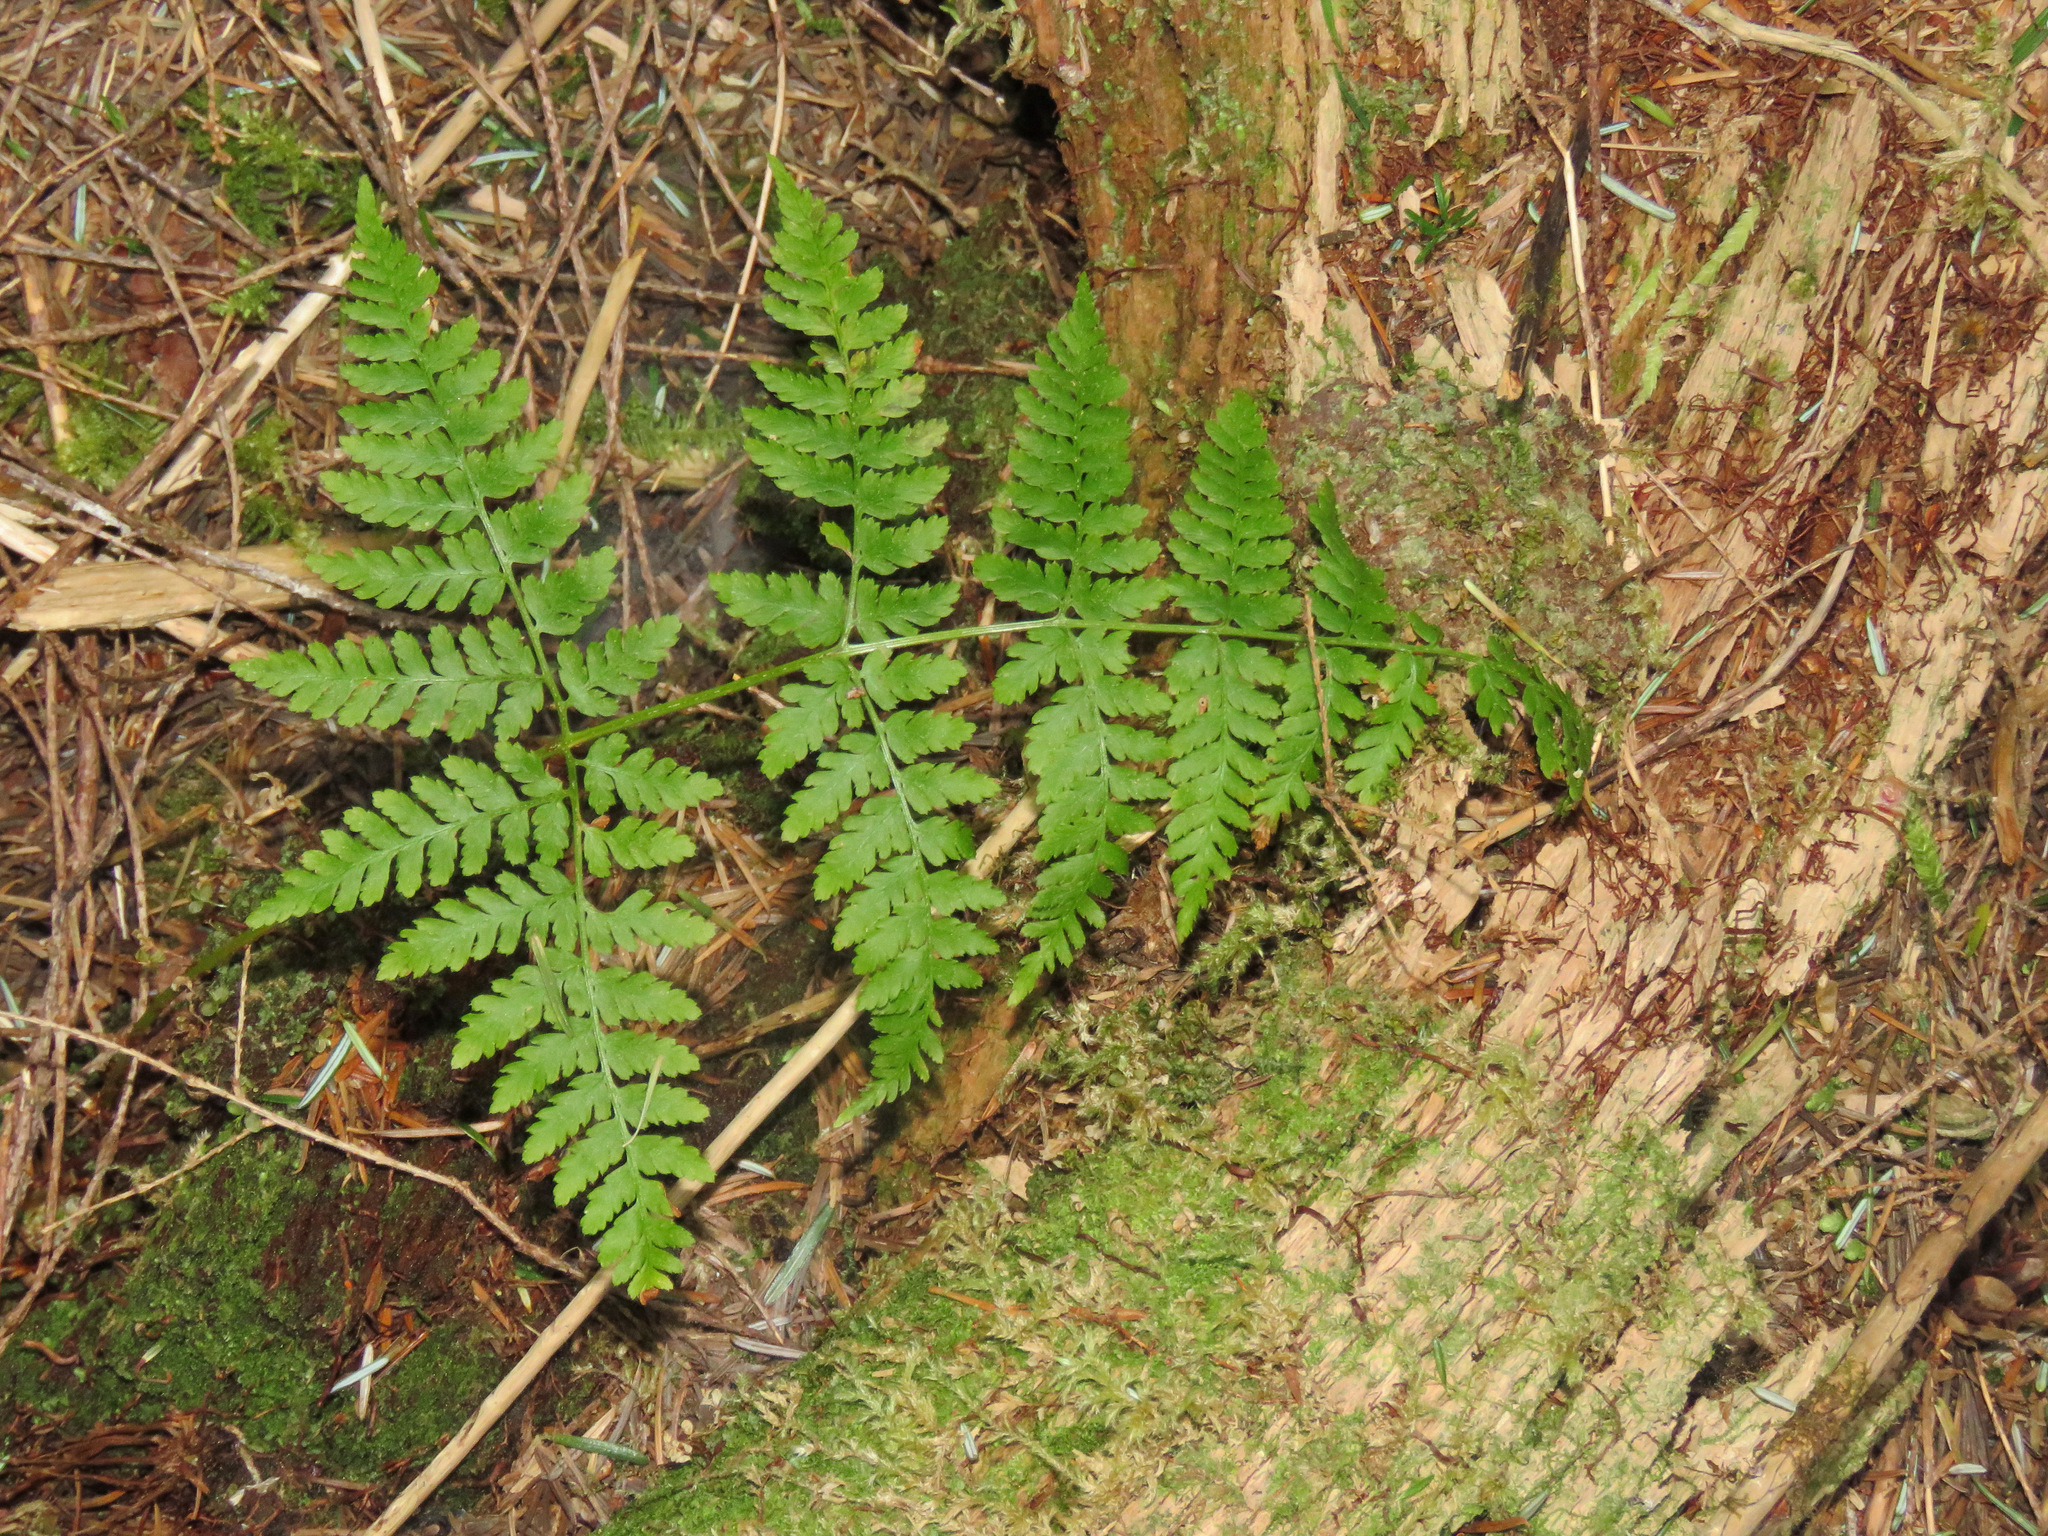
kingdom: Plantae
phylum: Tracheophyta
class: Polypodiopsida
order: Polypodiales
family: Dryopteridaceae
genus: Dryopteris
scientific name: Dryopteris expansa
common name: Northern buckler fern
